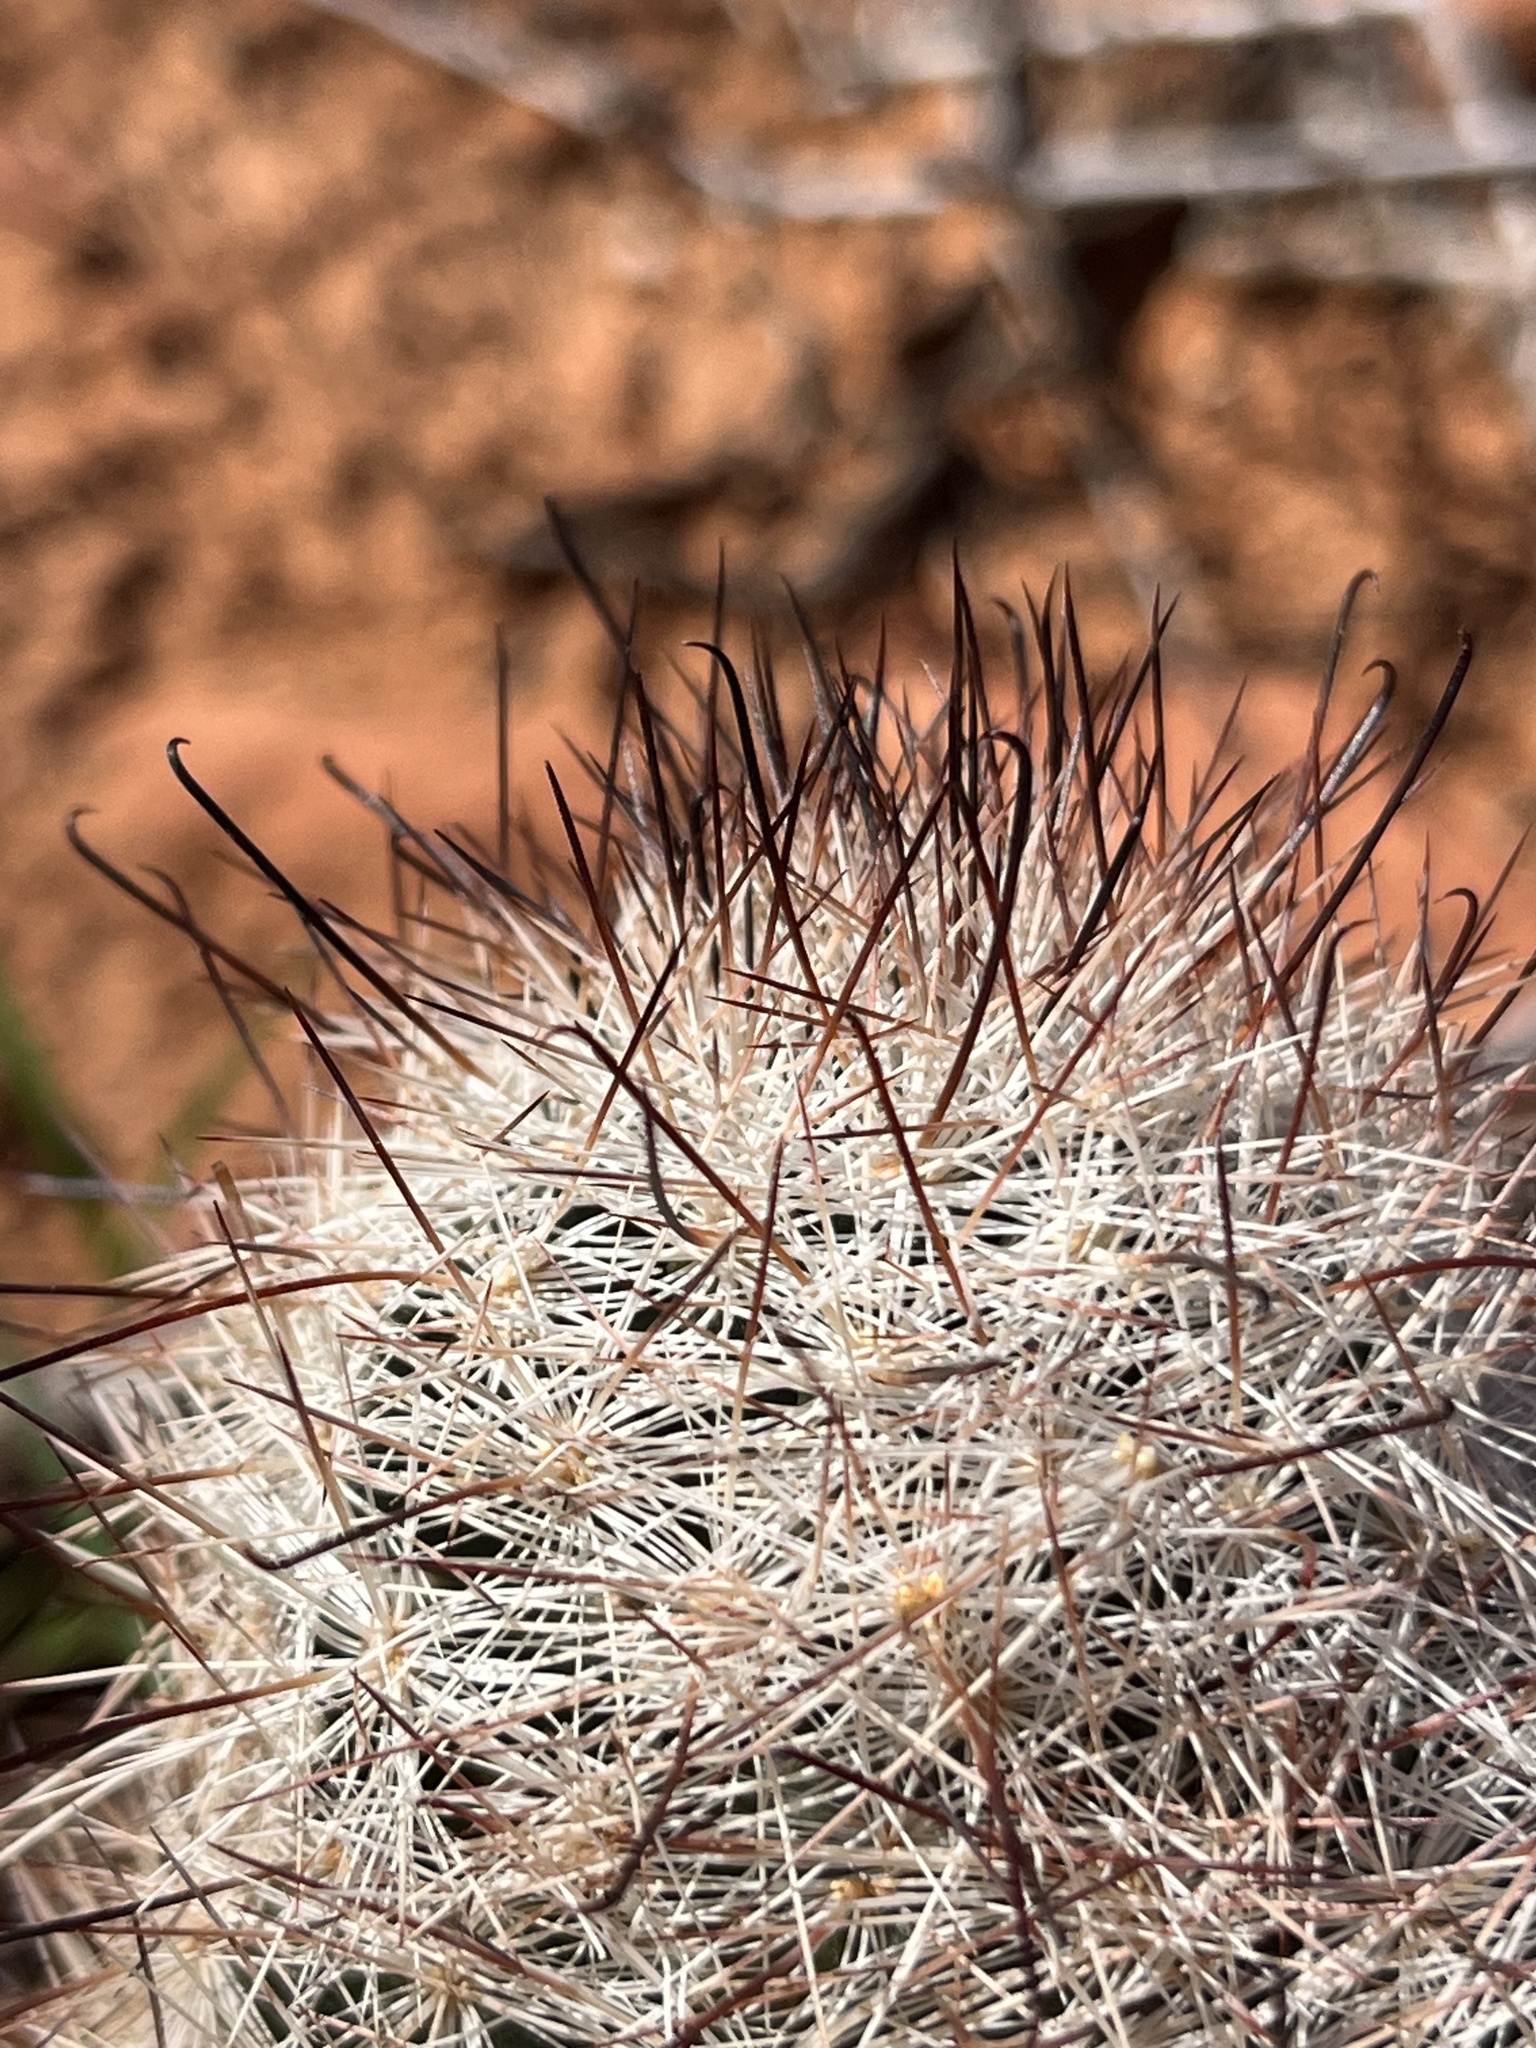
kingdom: Plantae
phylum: Tracheophyta
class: Magnoliopsida
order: Caryophyllales
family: Cactaceae
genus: Cochemiea
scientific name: Cochemiea tetrancistra
